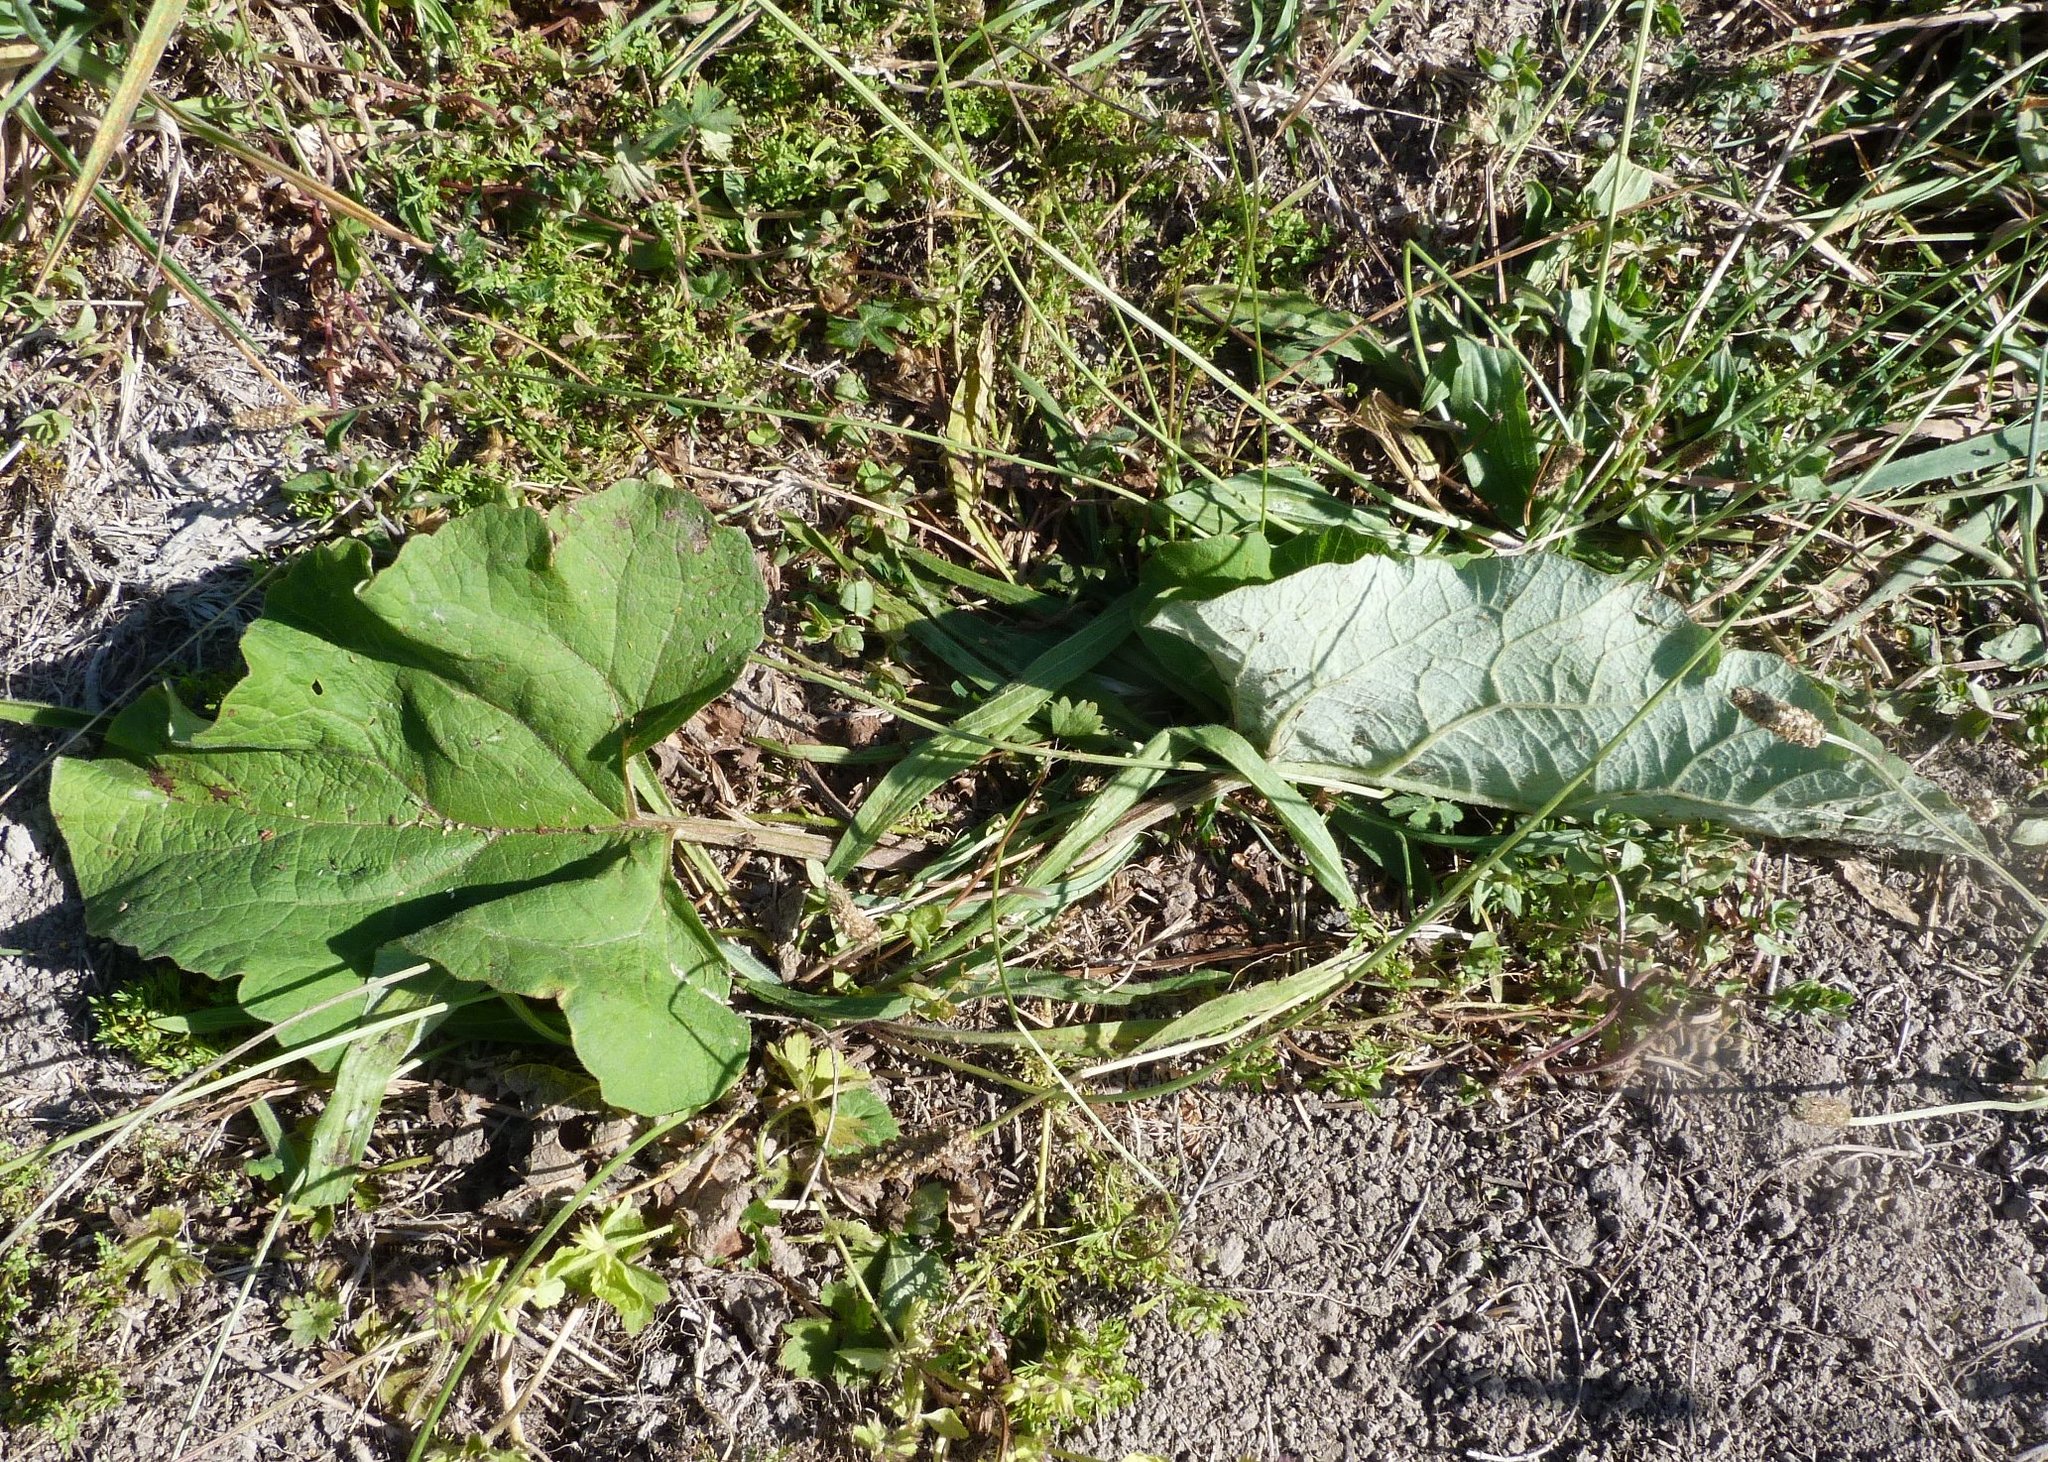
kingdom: Plantae
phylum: Tracheophyta
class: Magnoliopsida
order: Asterales
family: Asteraceae
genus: Arctium
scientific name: Arctium minus
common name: Lesser burdock
